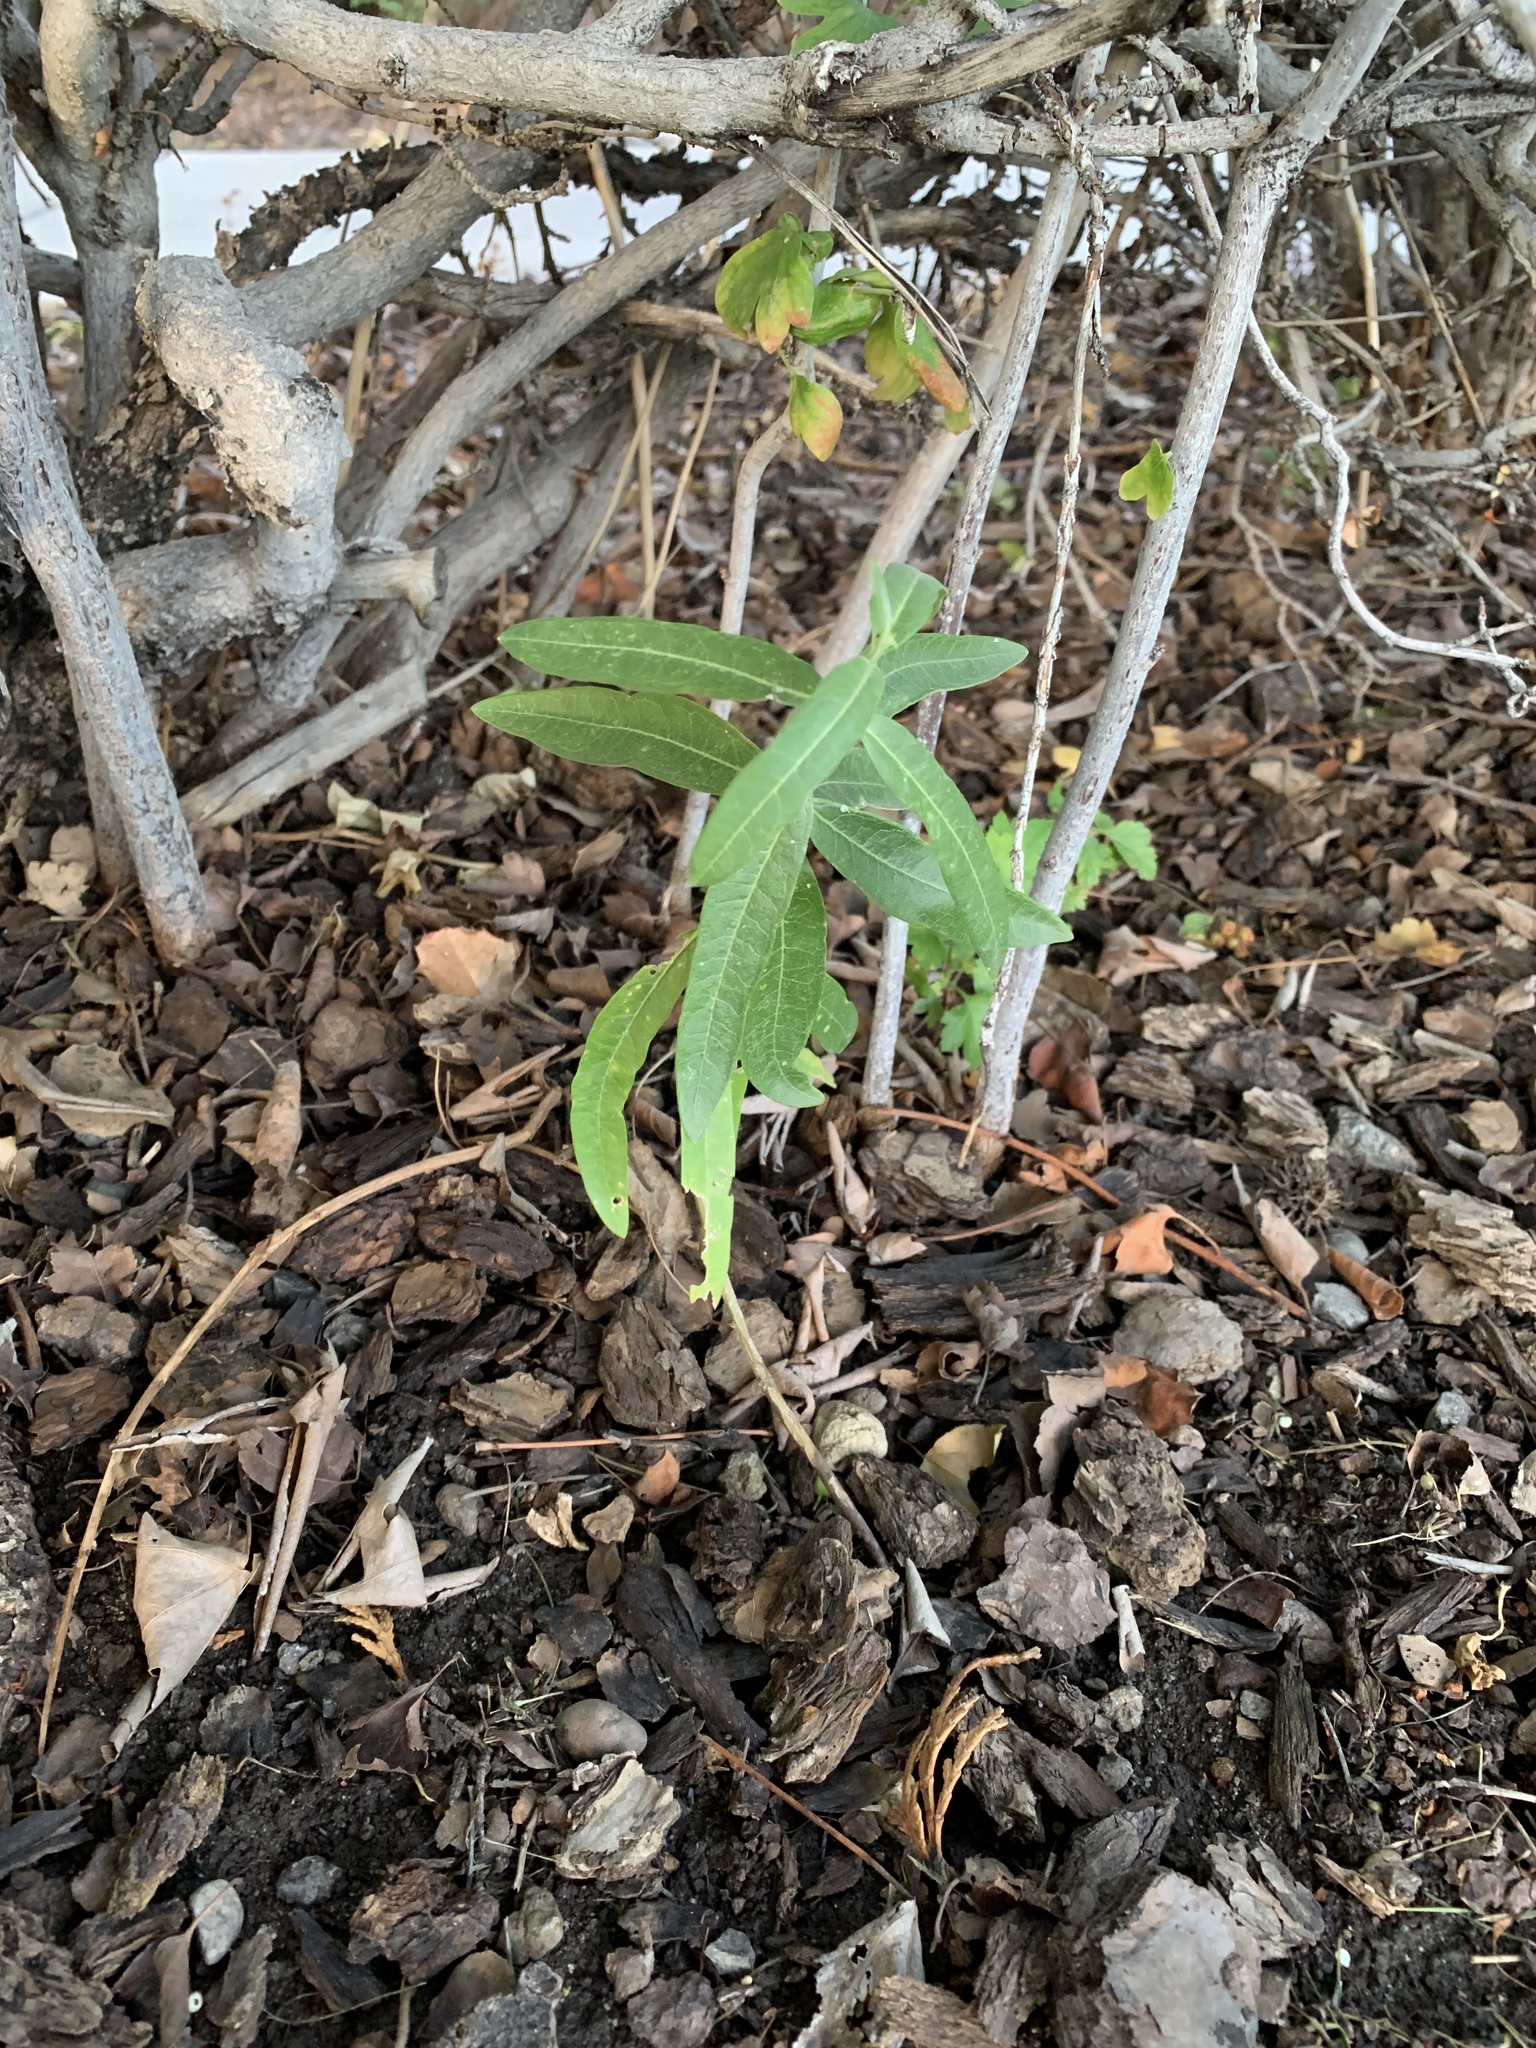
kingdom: Plantae
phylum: Tracheophyta
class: Magnoliopsida
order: Gentianales
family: Apocynaceae
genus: Asclepias
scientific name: Asclepias speciosa
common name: Showy milkweed
